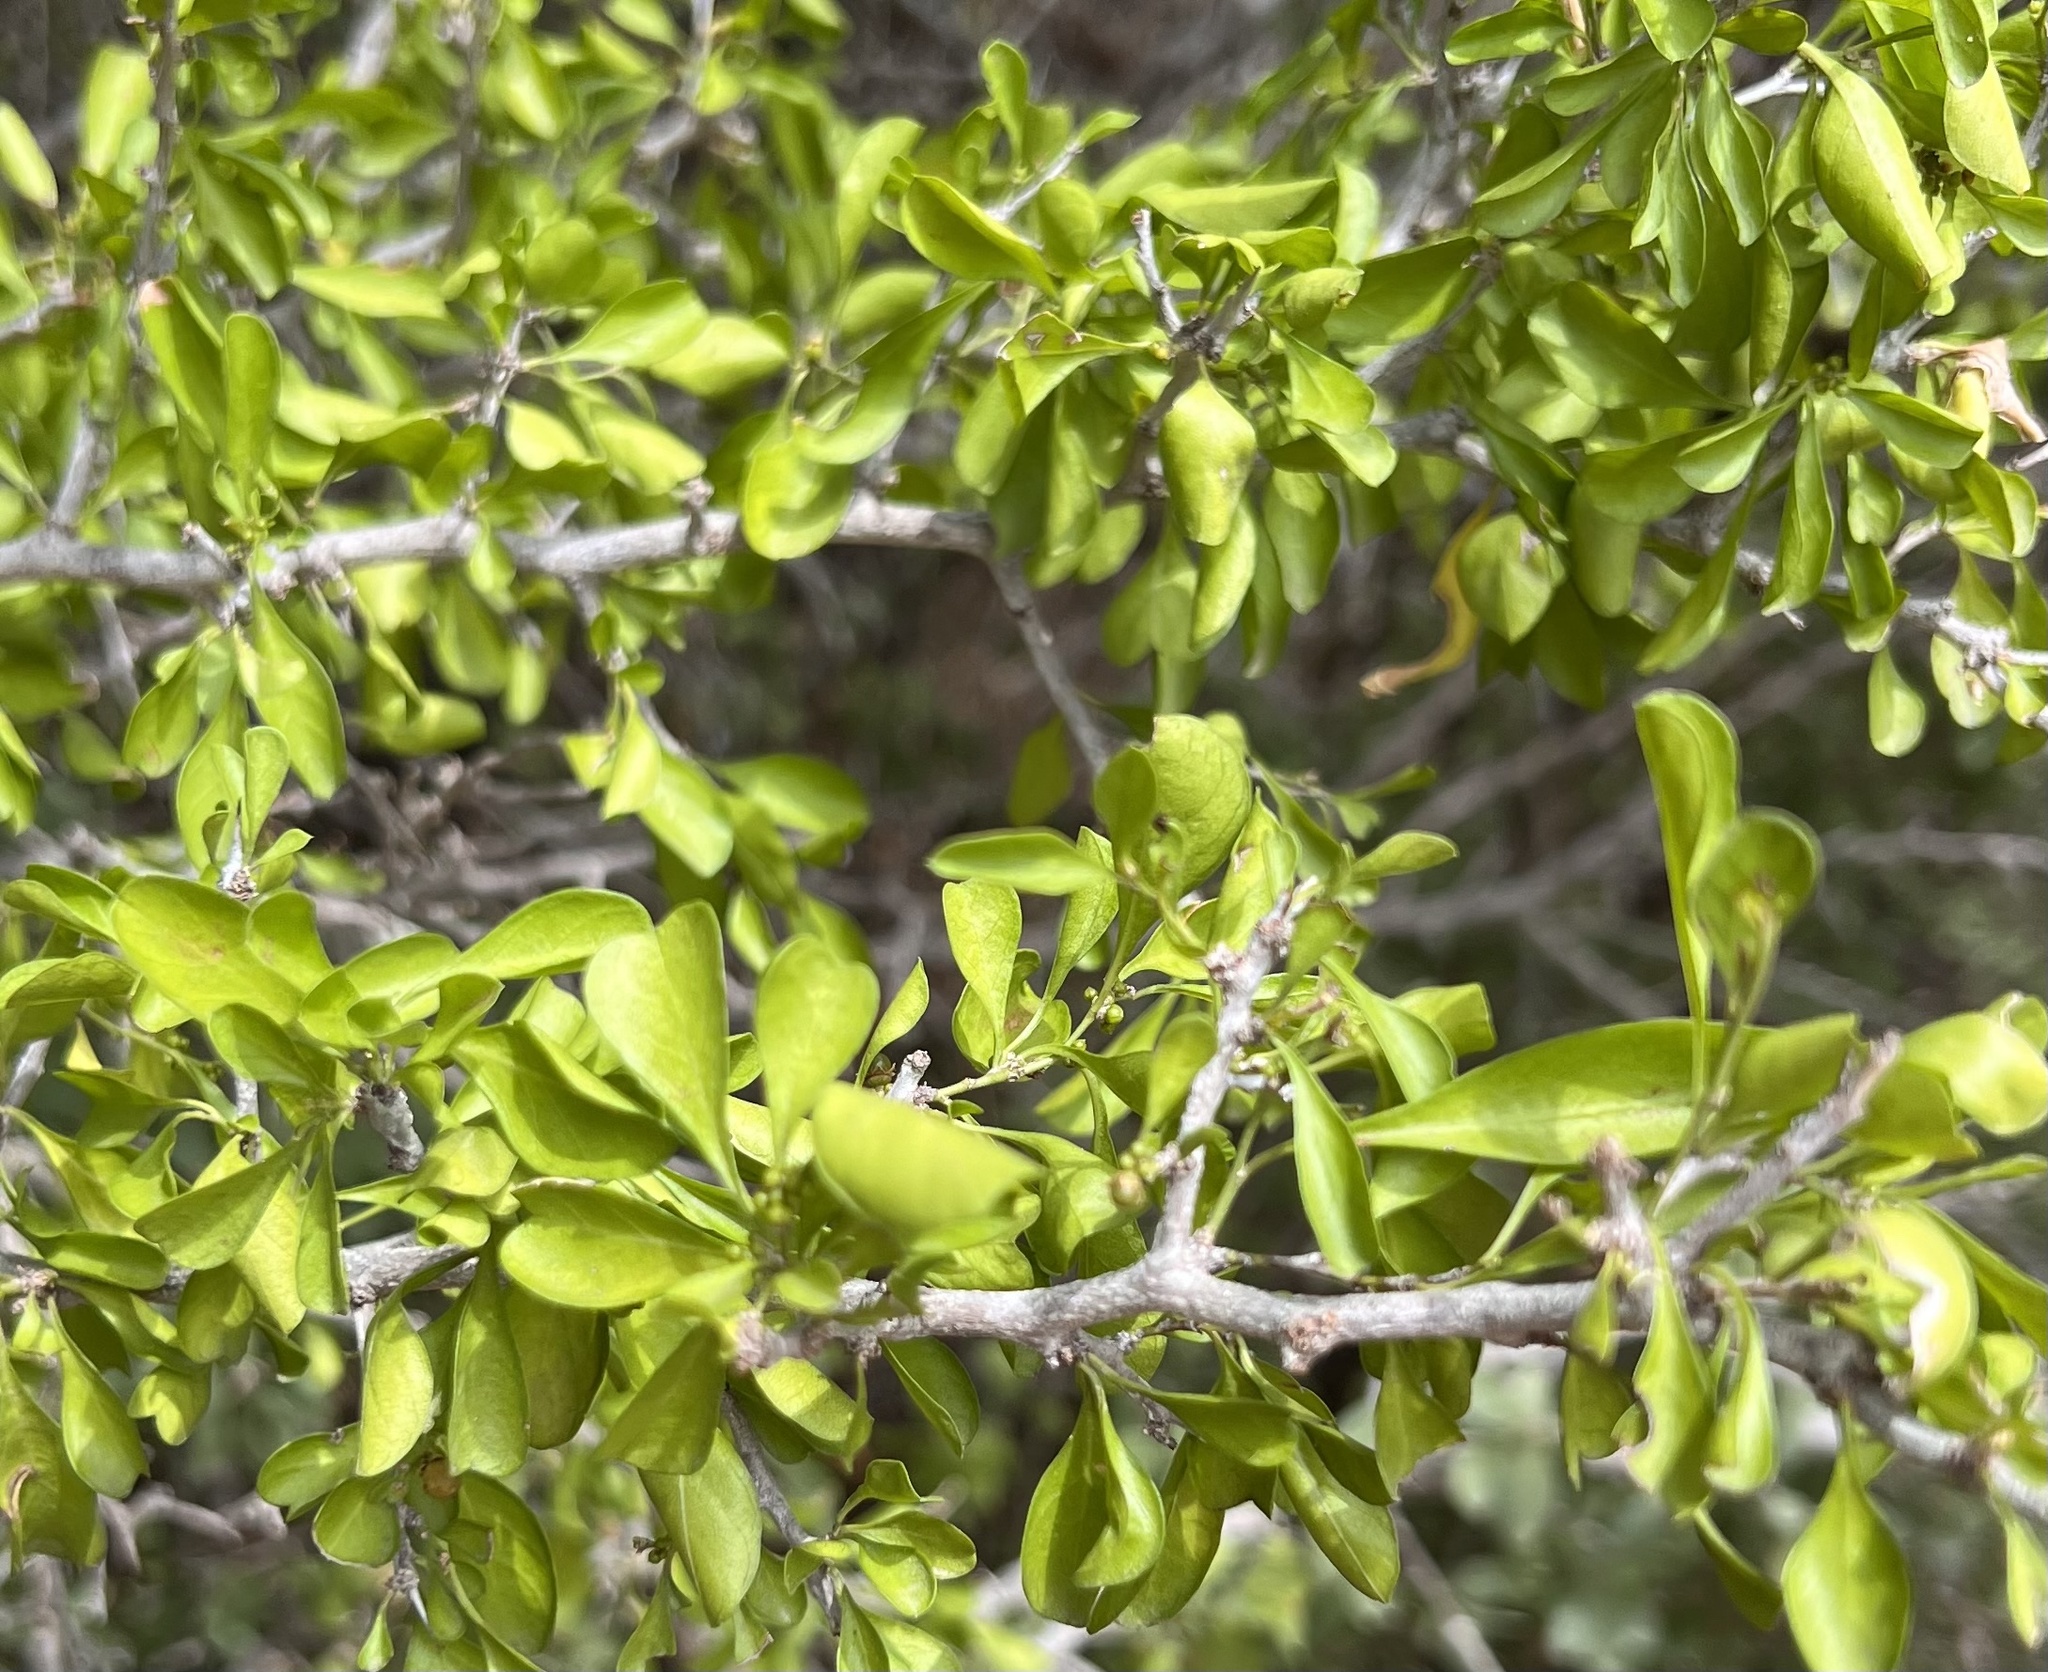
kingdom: Plantae
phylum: Tracheophyta
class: Magnoliopsida
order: Rosales
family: Rhamnaceae
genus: Condalia
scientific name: Condalia hookeri
